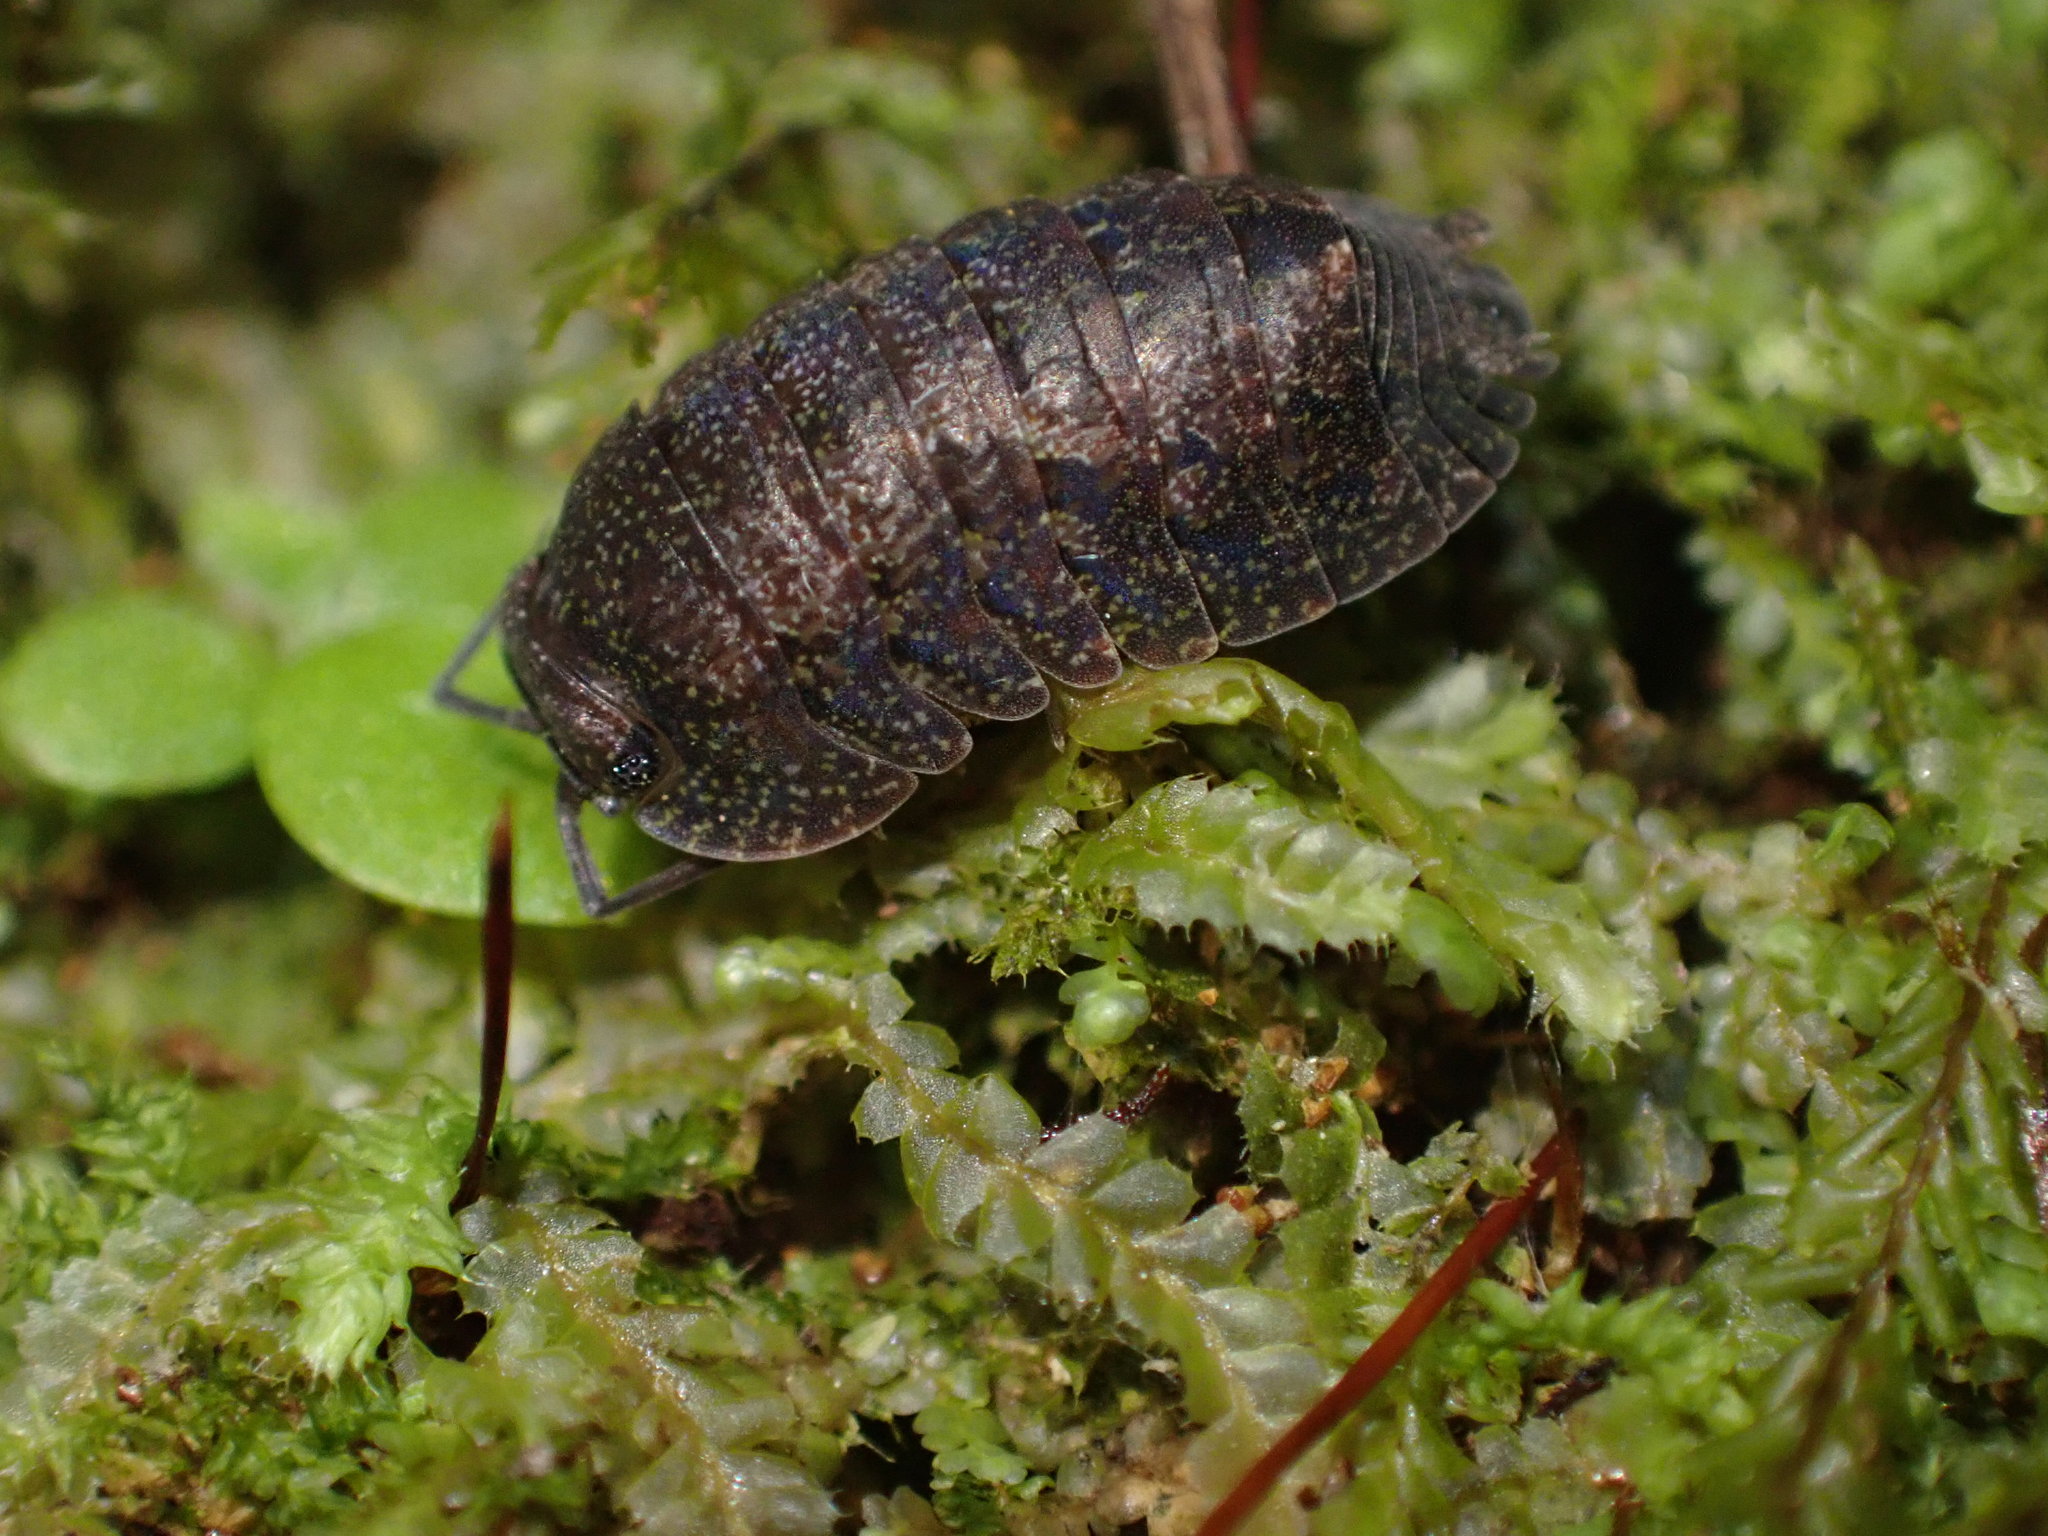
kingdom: Animalia
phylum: Arthropoda
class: Malacostraca
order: Isopoda
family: Armadillidae
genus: Cubaris
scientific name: Cubaris tarangensis
